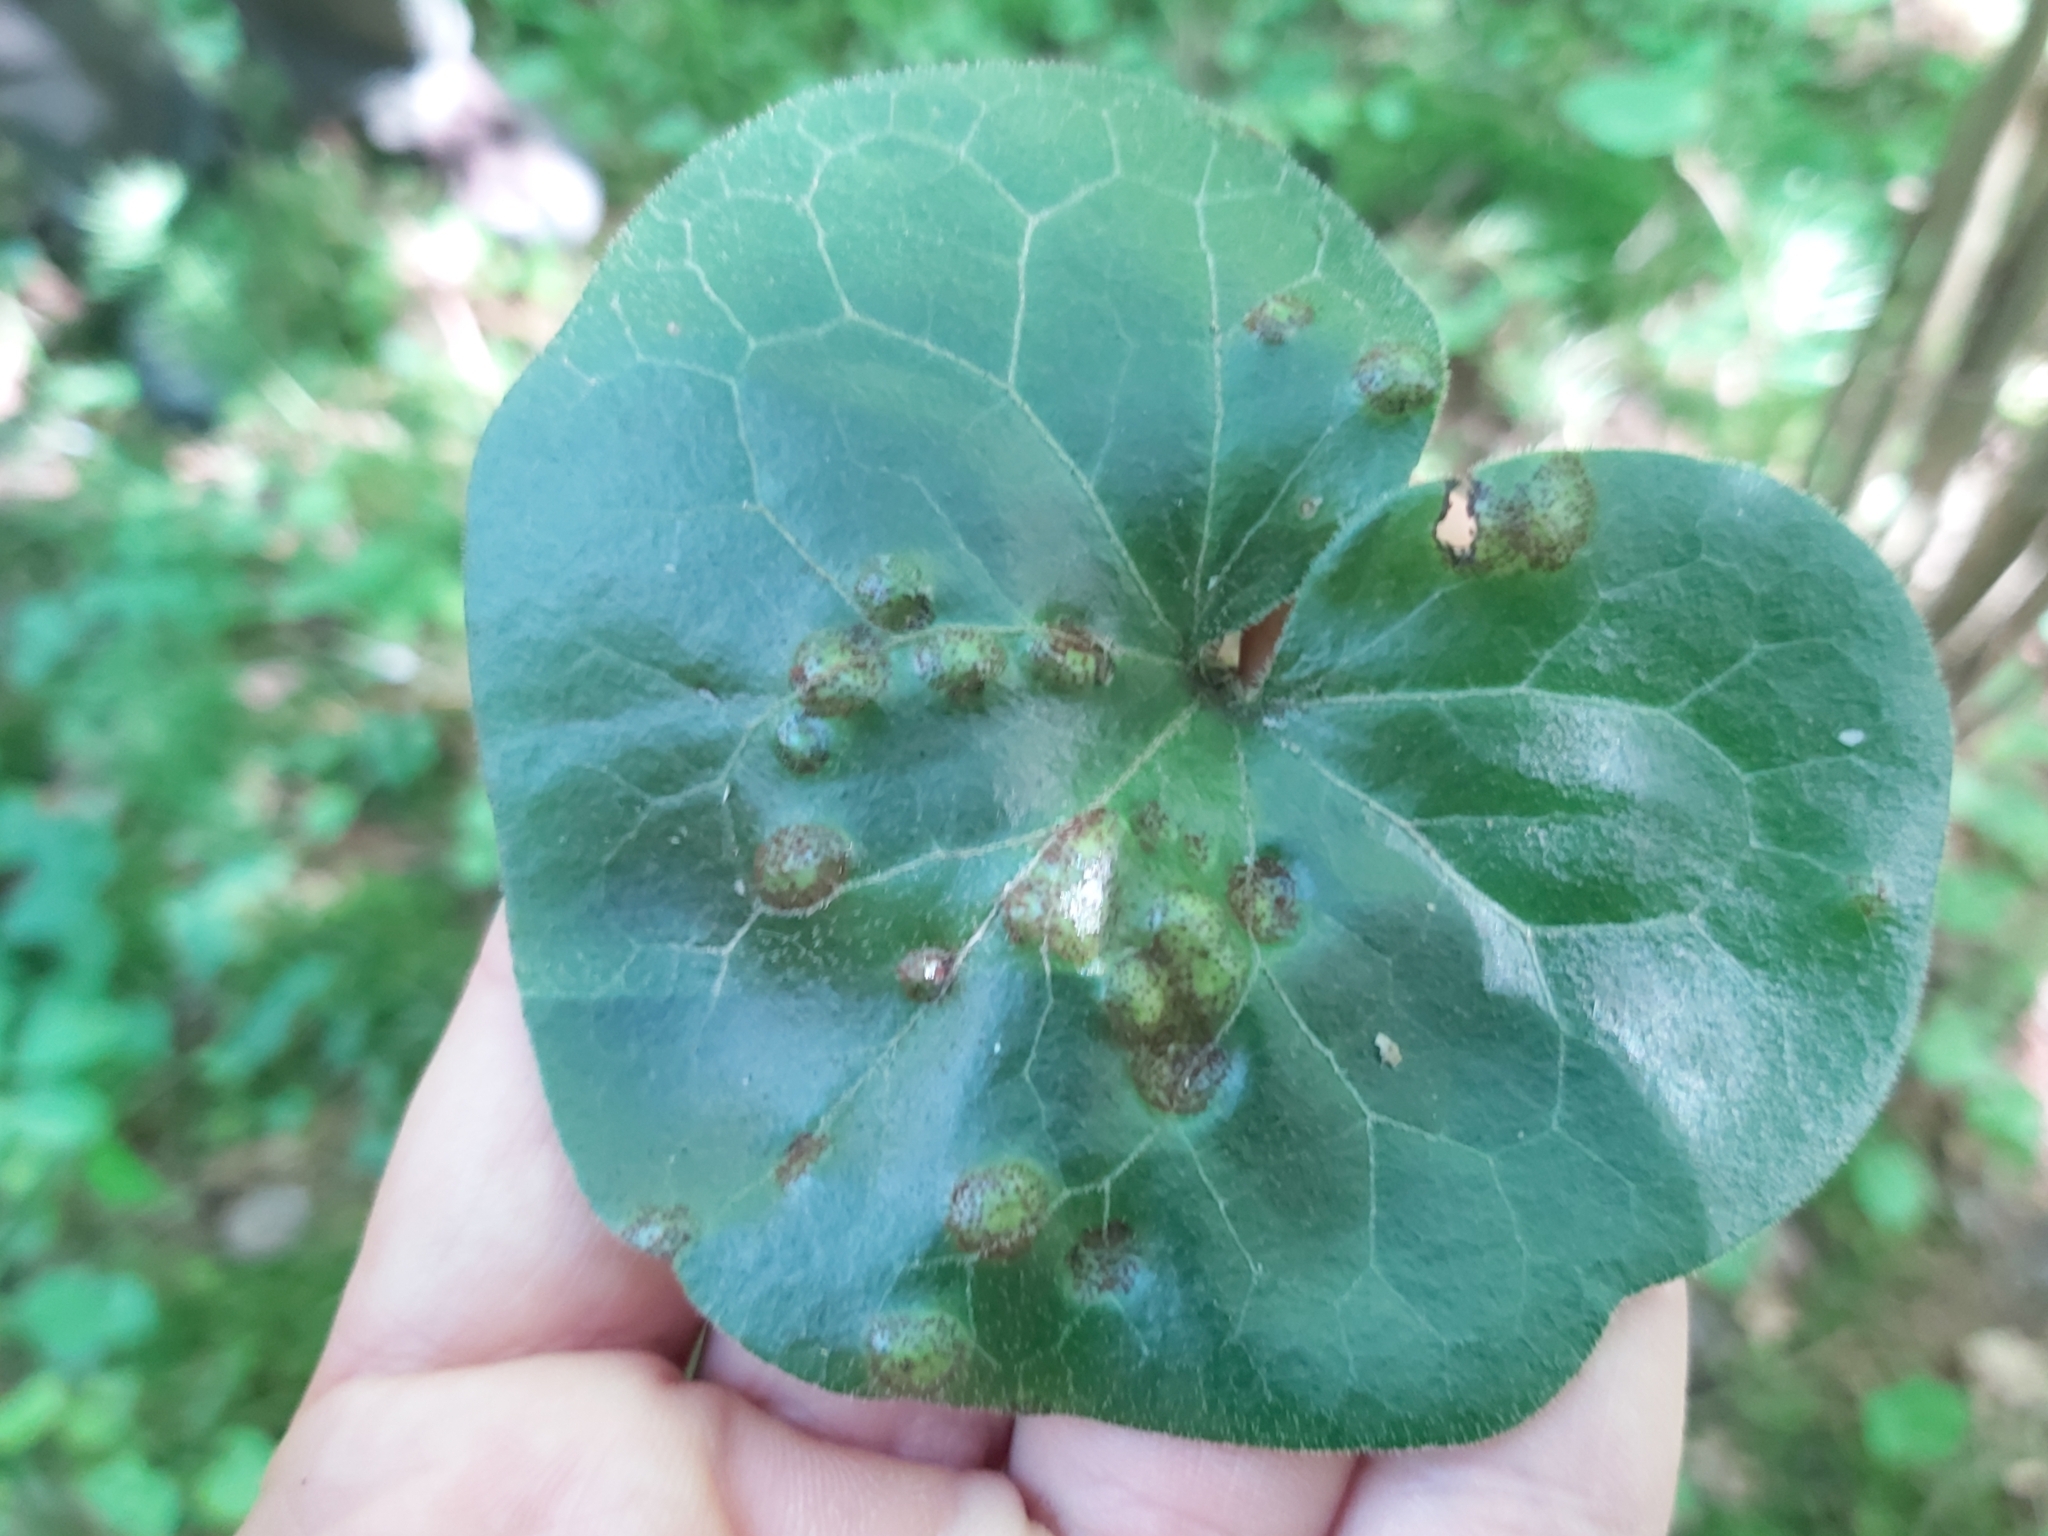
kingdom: Fungi
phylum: Basidiomycota
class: Pucciniomycetes
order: Pucciniales
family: Pucciniaceae
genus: Puccinia
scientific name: Puccinia asarina
